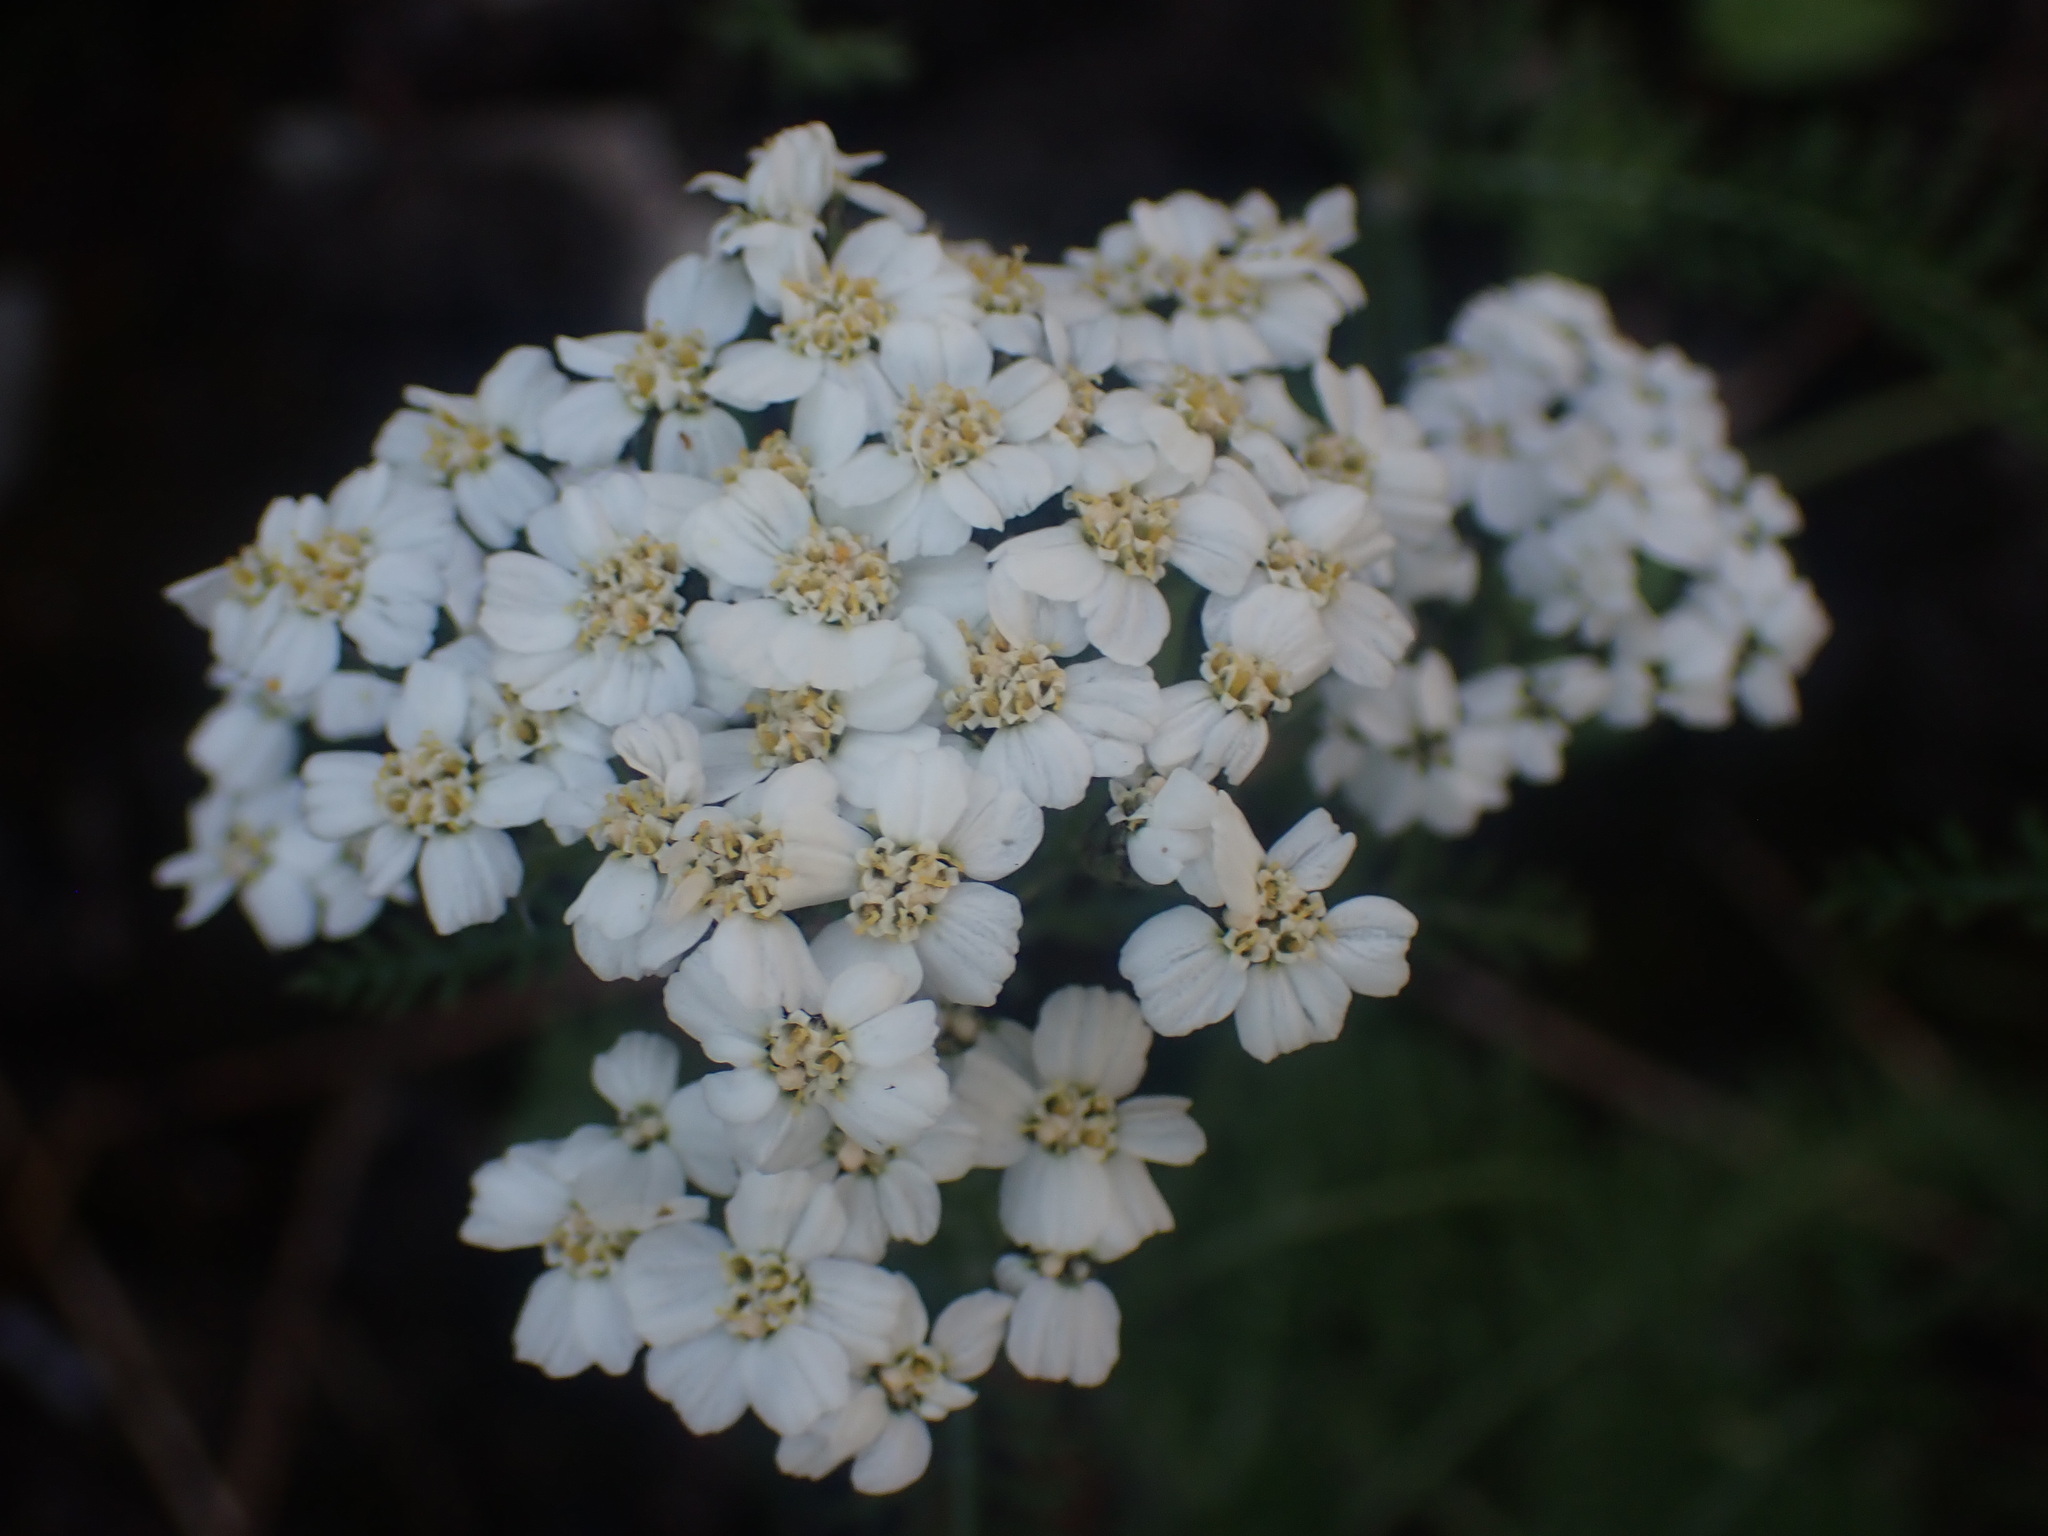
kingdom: Plantae
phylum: Tracheophyta
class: Magnoliopsida
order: Asterales
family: Asteraceae
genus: Achillea
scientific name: Achillea millefolium
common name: Yarrow
